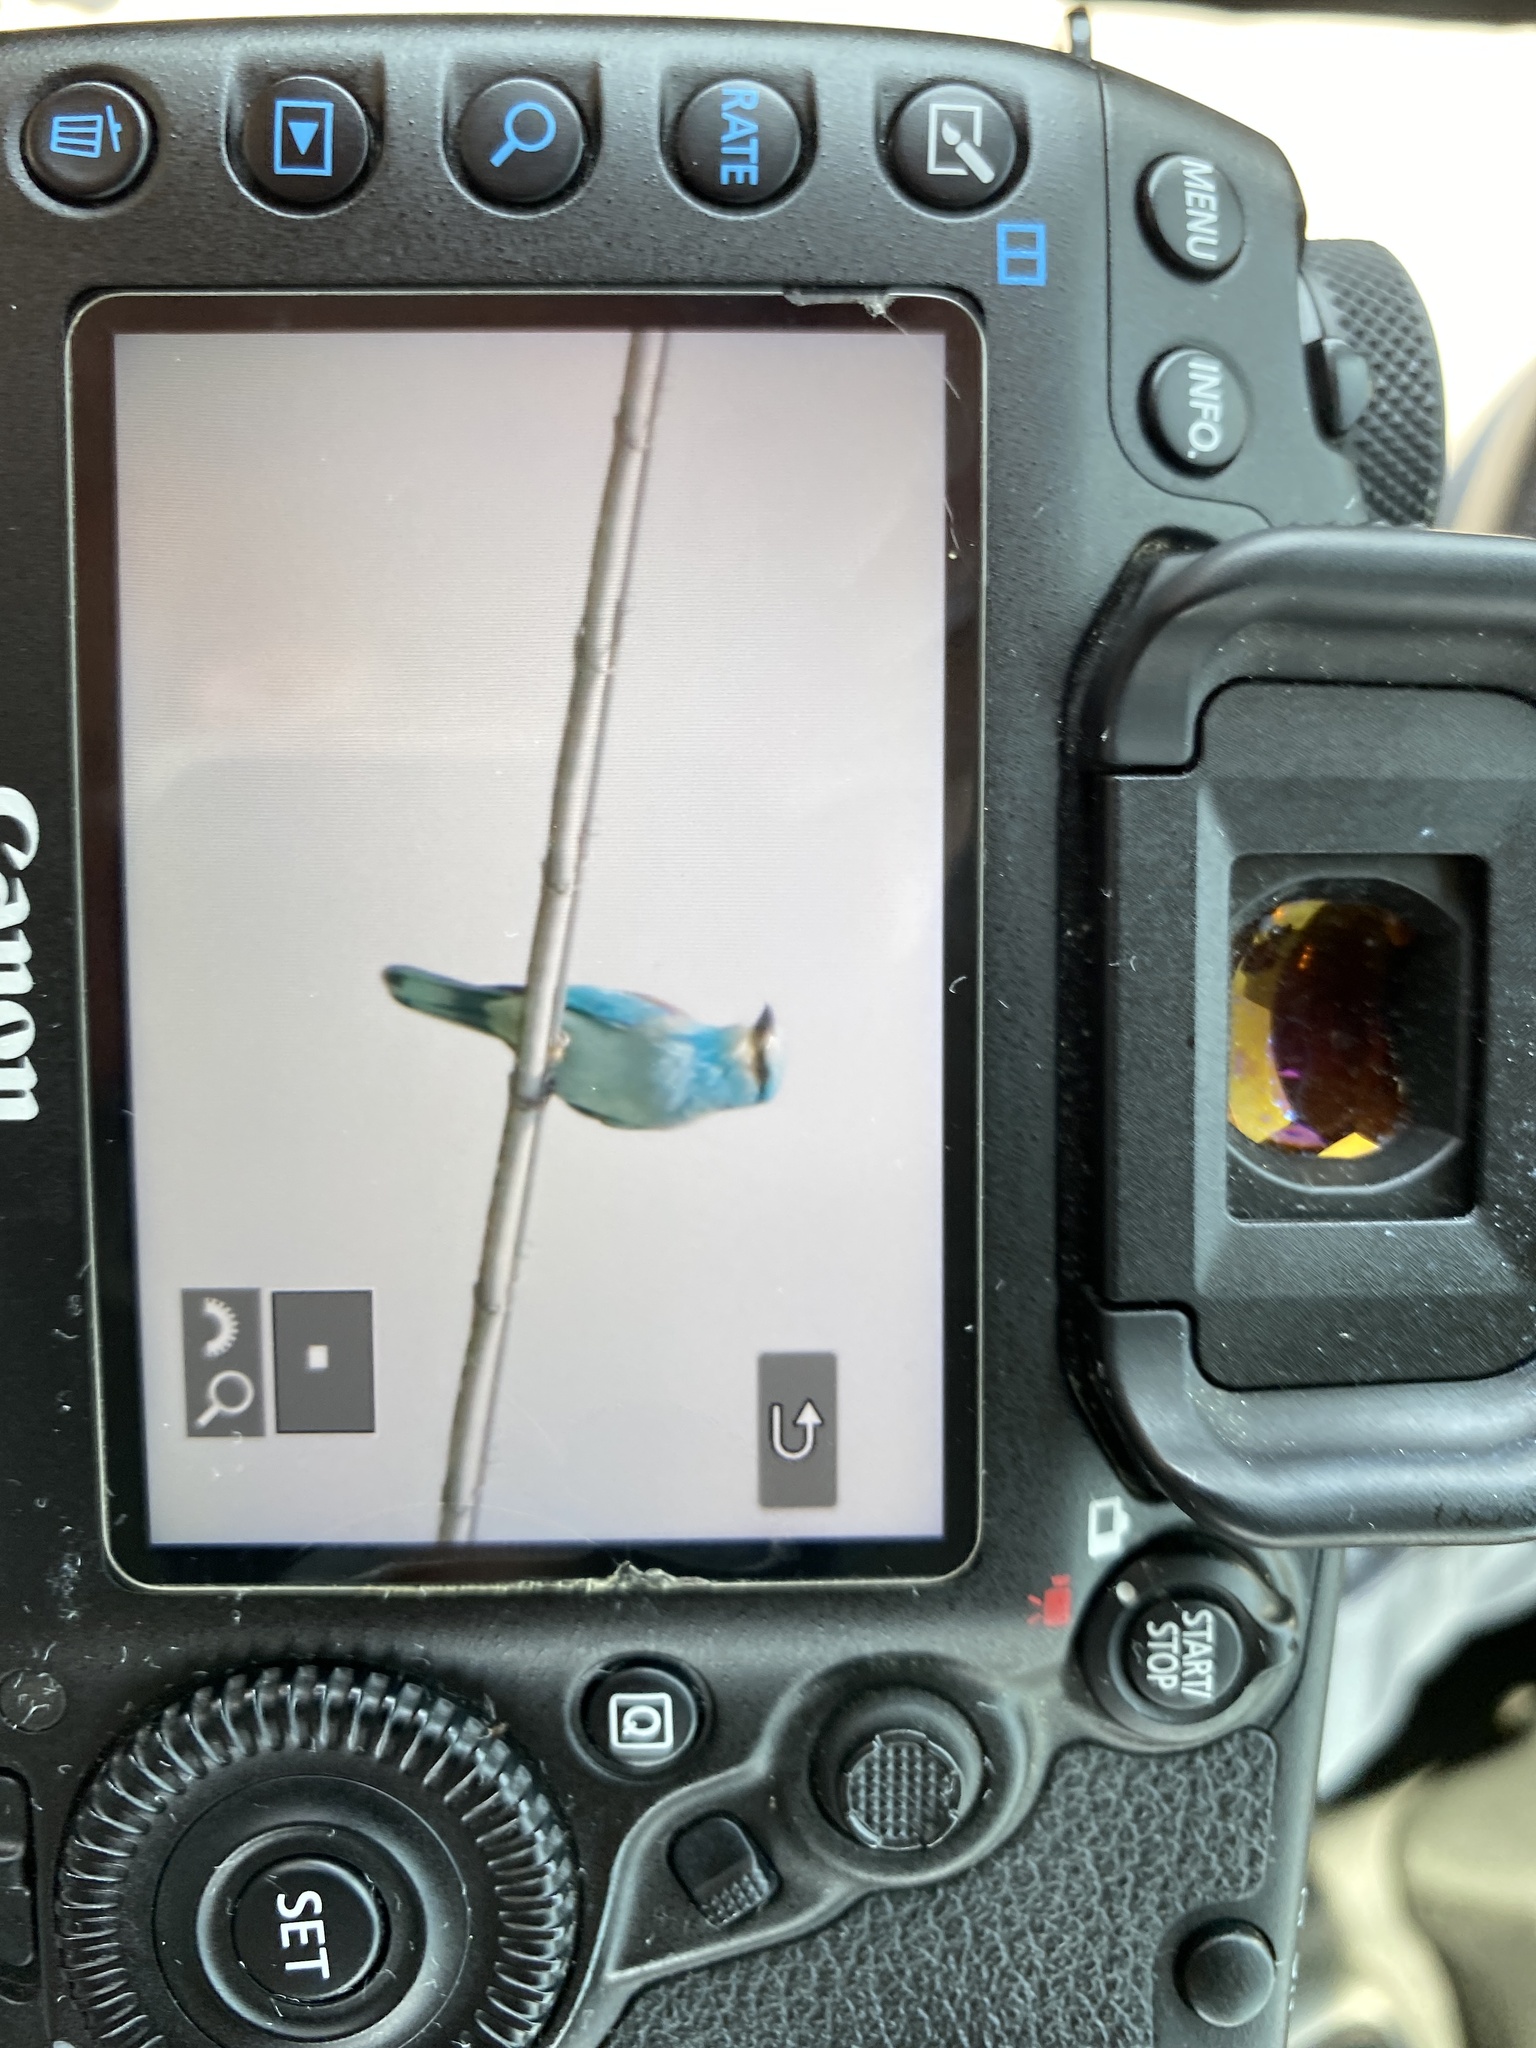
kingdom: Animalia
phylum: Chordata
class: Aves
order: Coraciiformes
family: Coraciidae
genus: Coracias
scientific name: Coracias garrulus
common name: European roller
